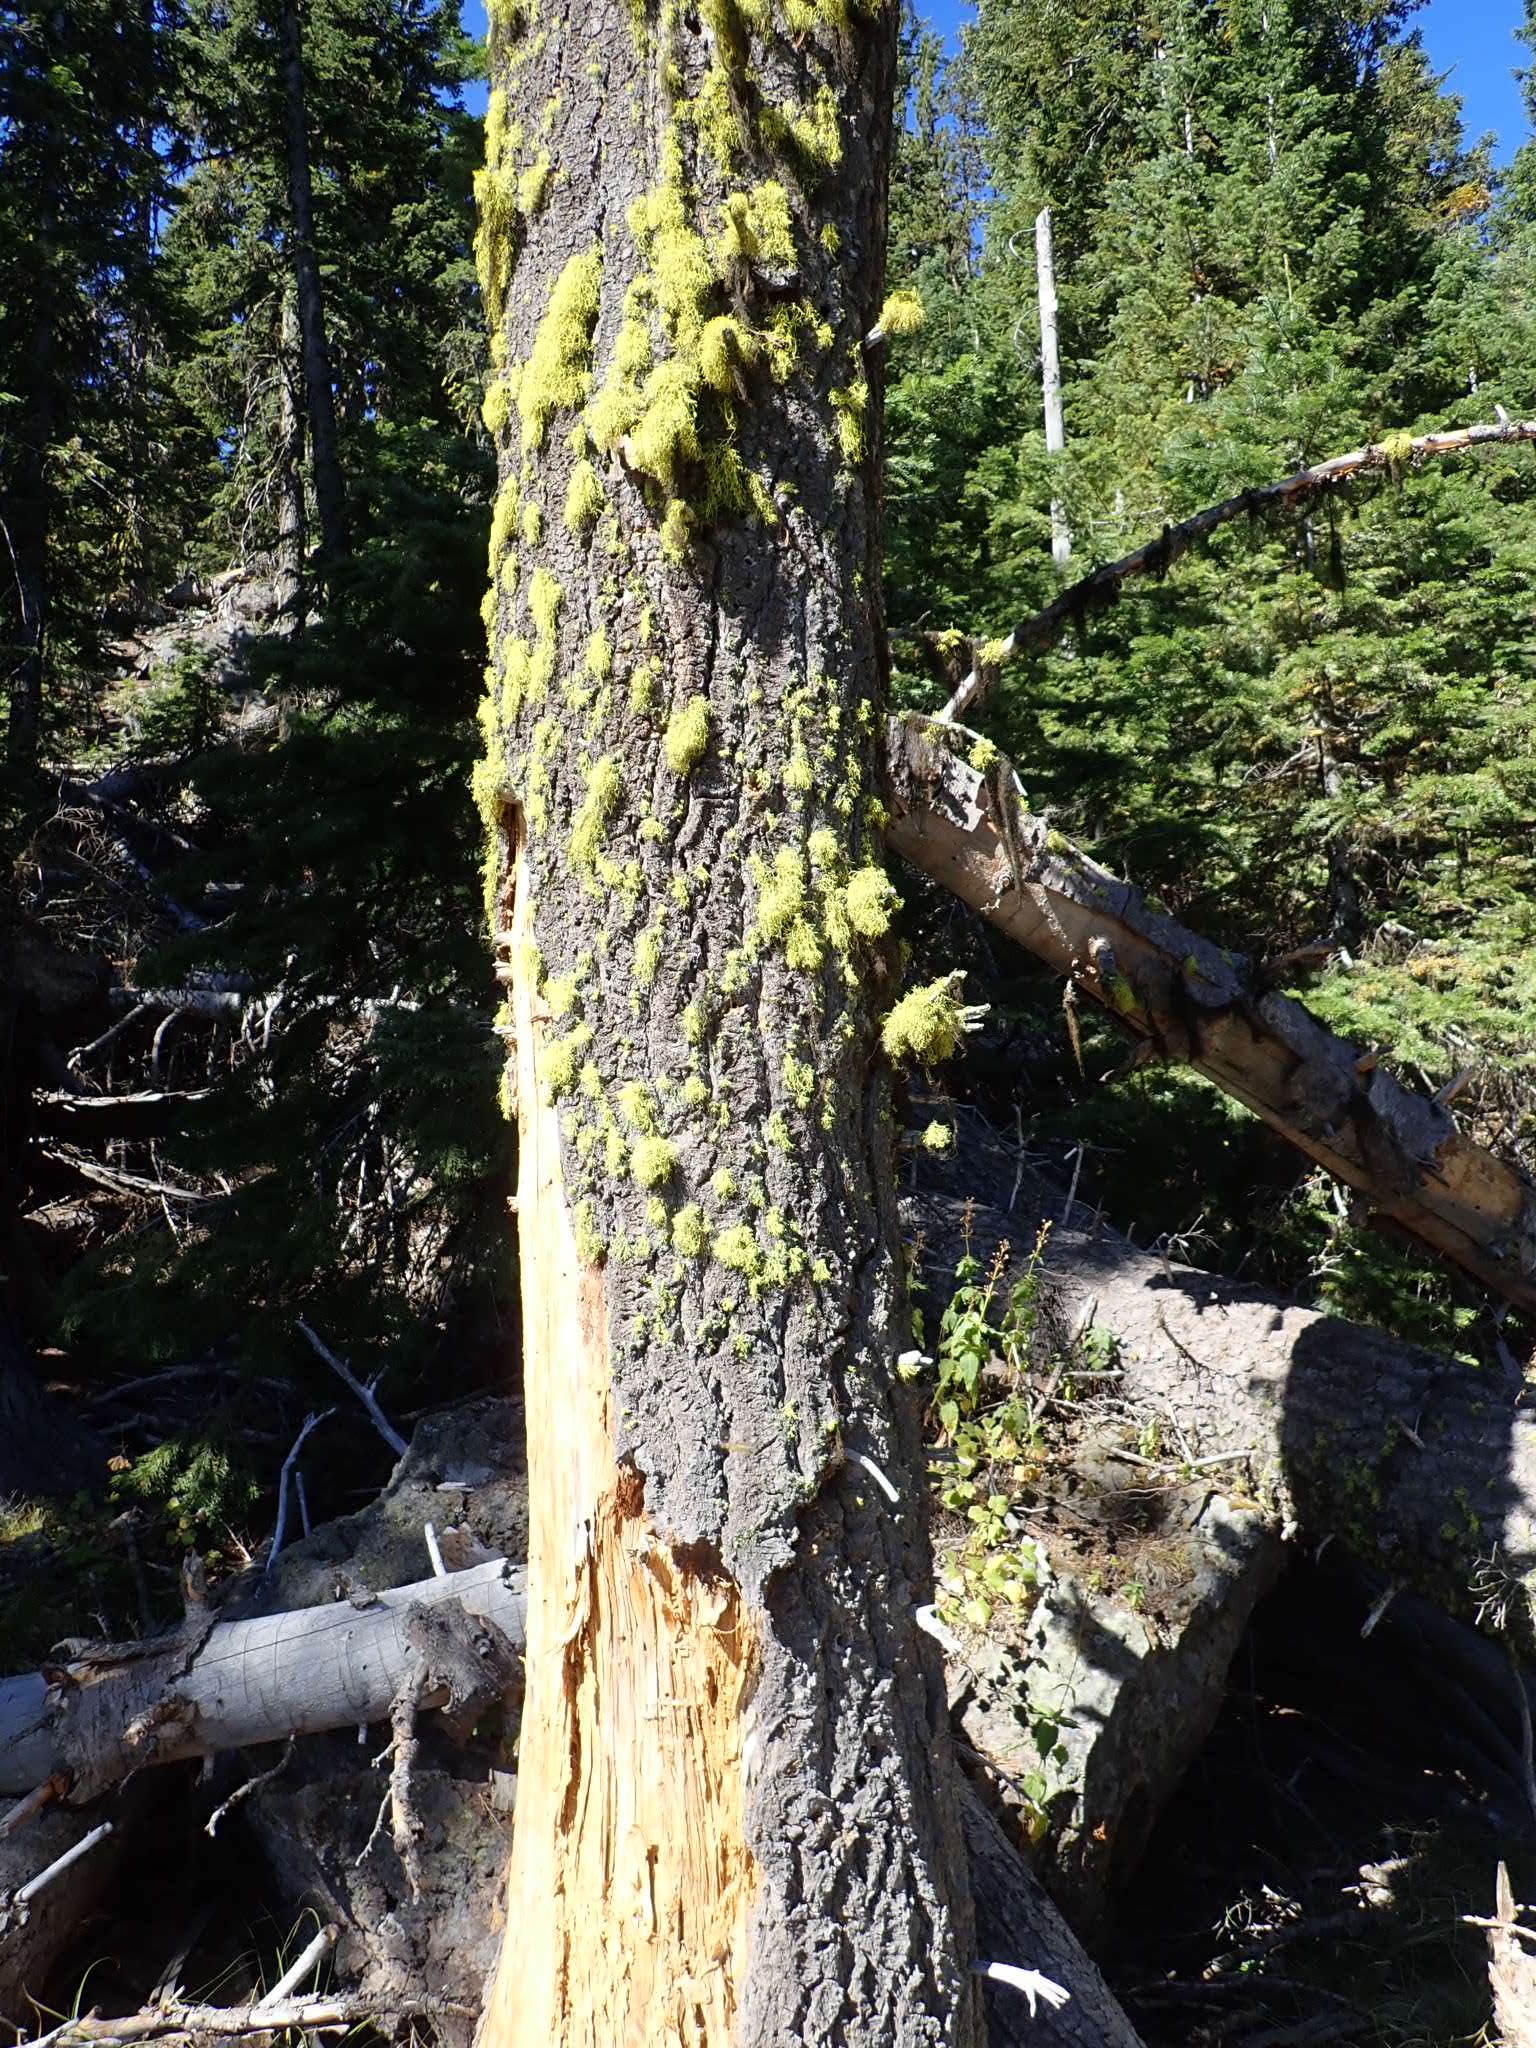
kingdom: Fungi
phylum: Ascomycota
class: Lecanoromycetes
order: Lecanorales
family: Parmeliaceae
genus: Letharia
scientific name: Letharia vulpina
